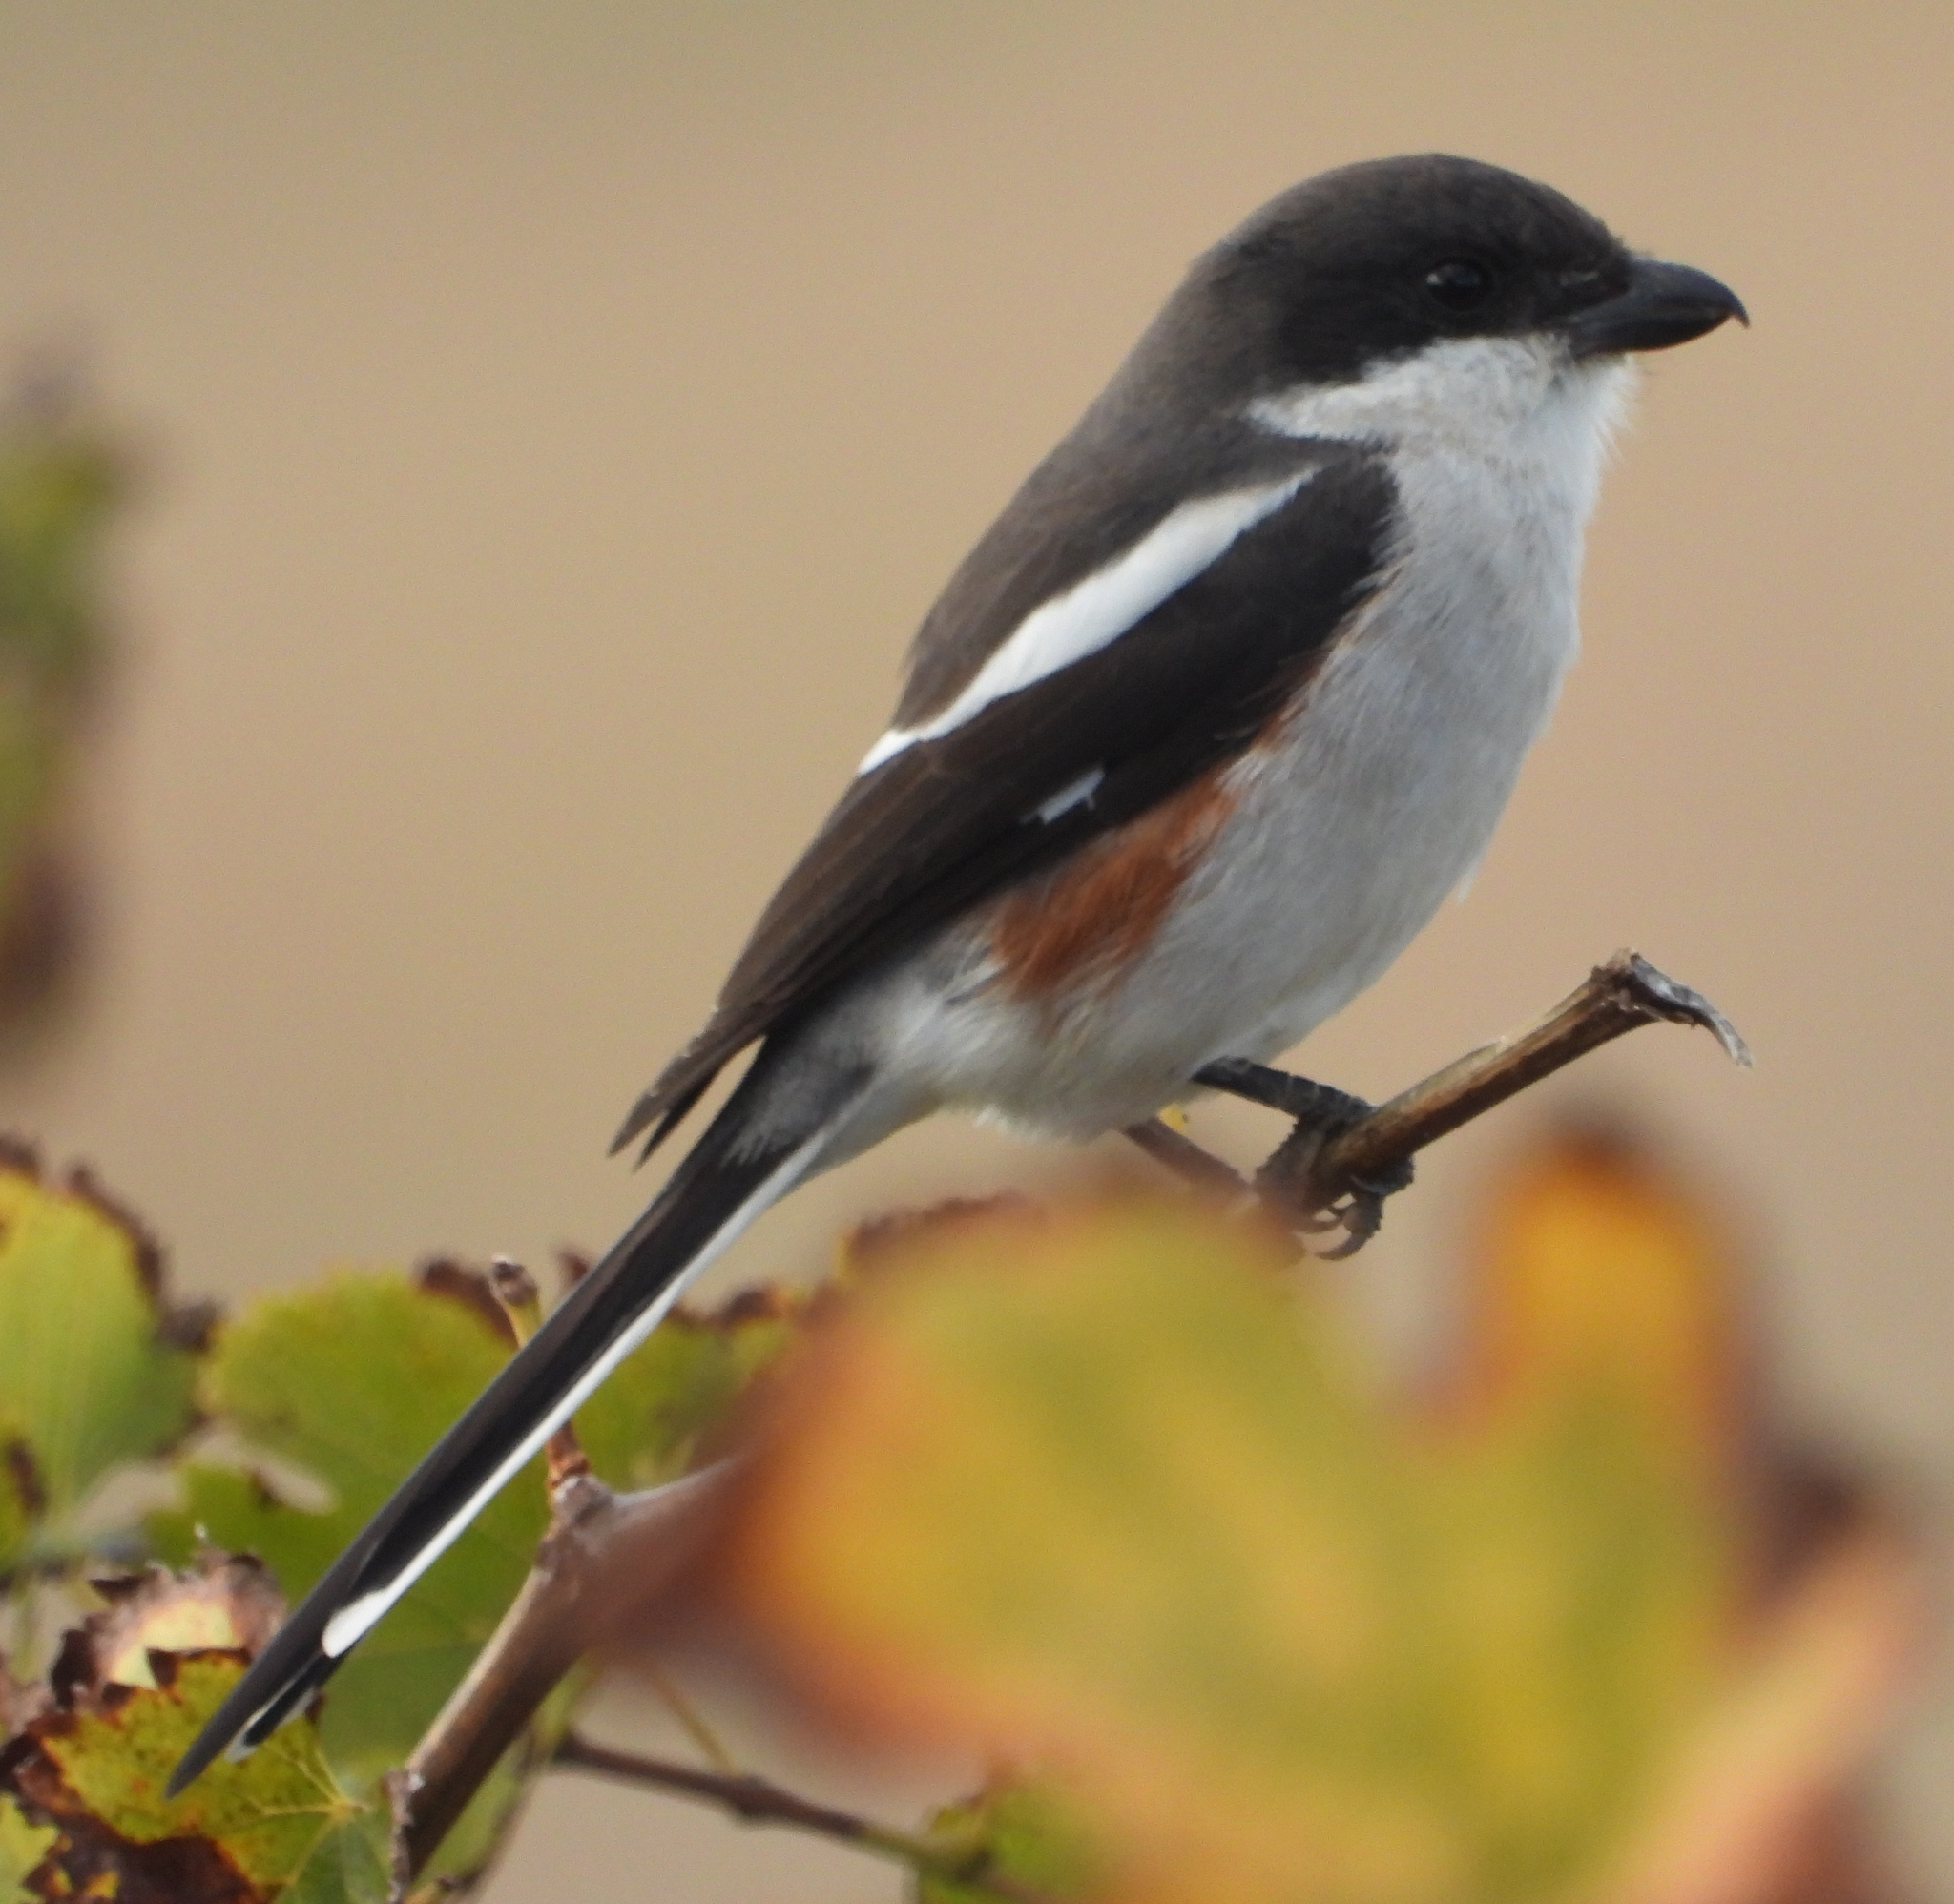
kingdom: Animalia
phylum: Chordata
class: Aves
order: Passeriformes
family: Laniidae
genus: Lanius
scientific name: Lanius collaris
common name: Southern fiscal
